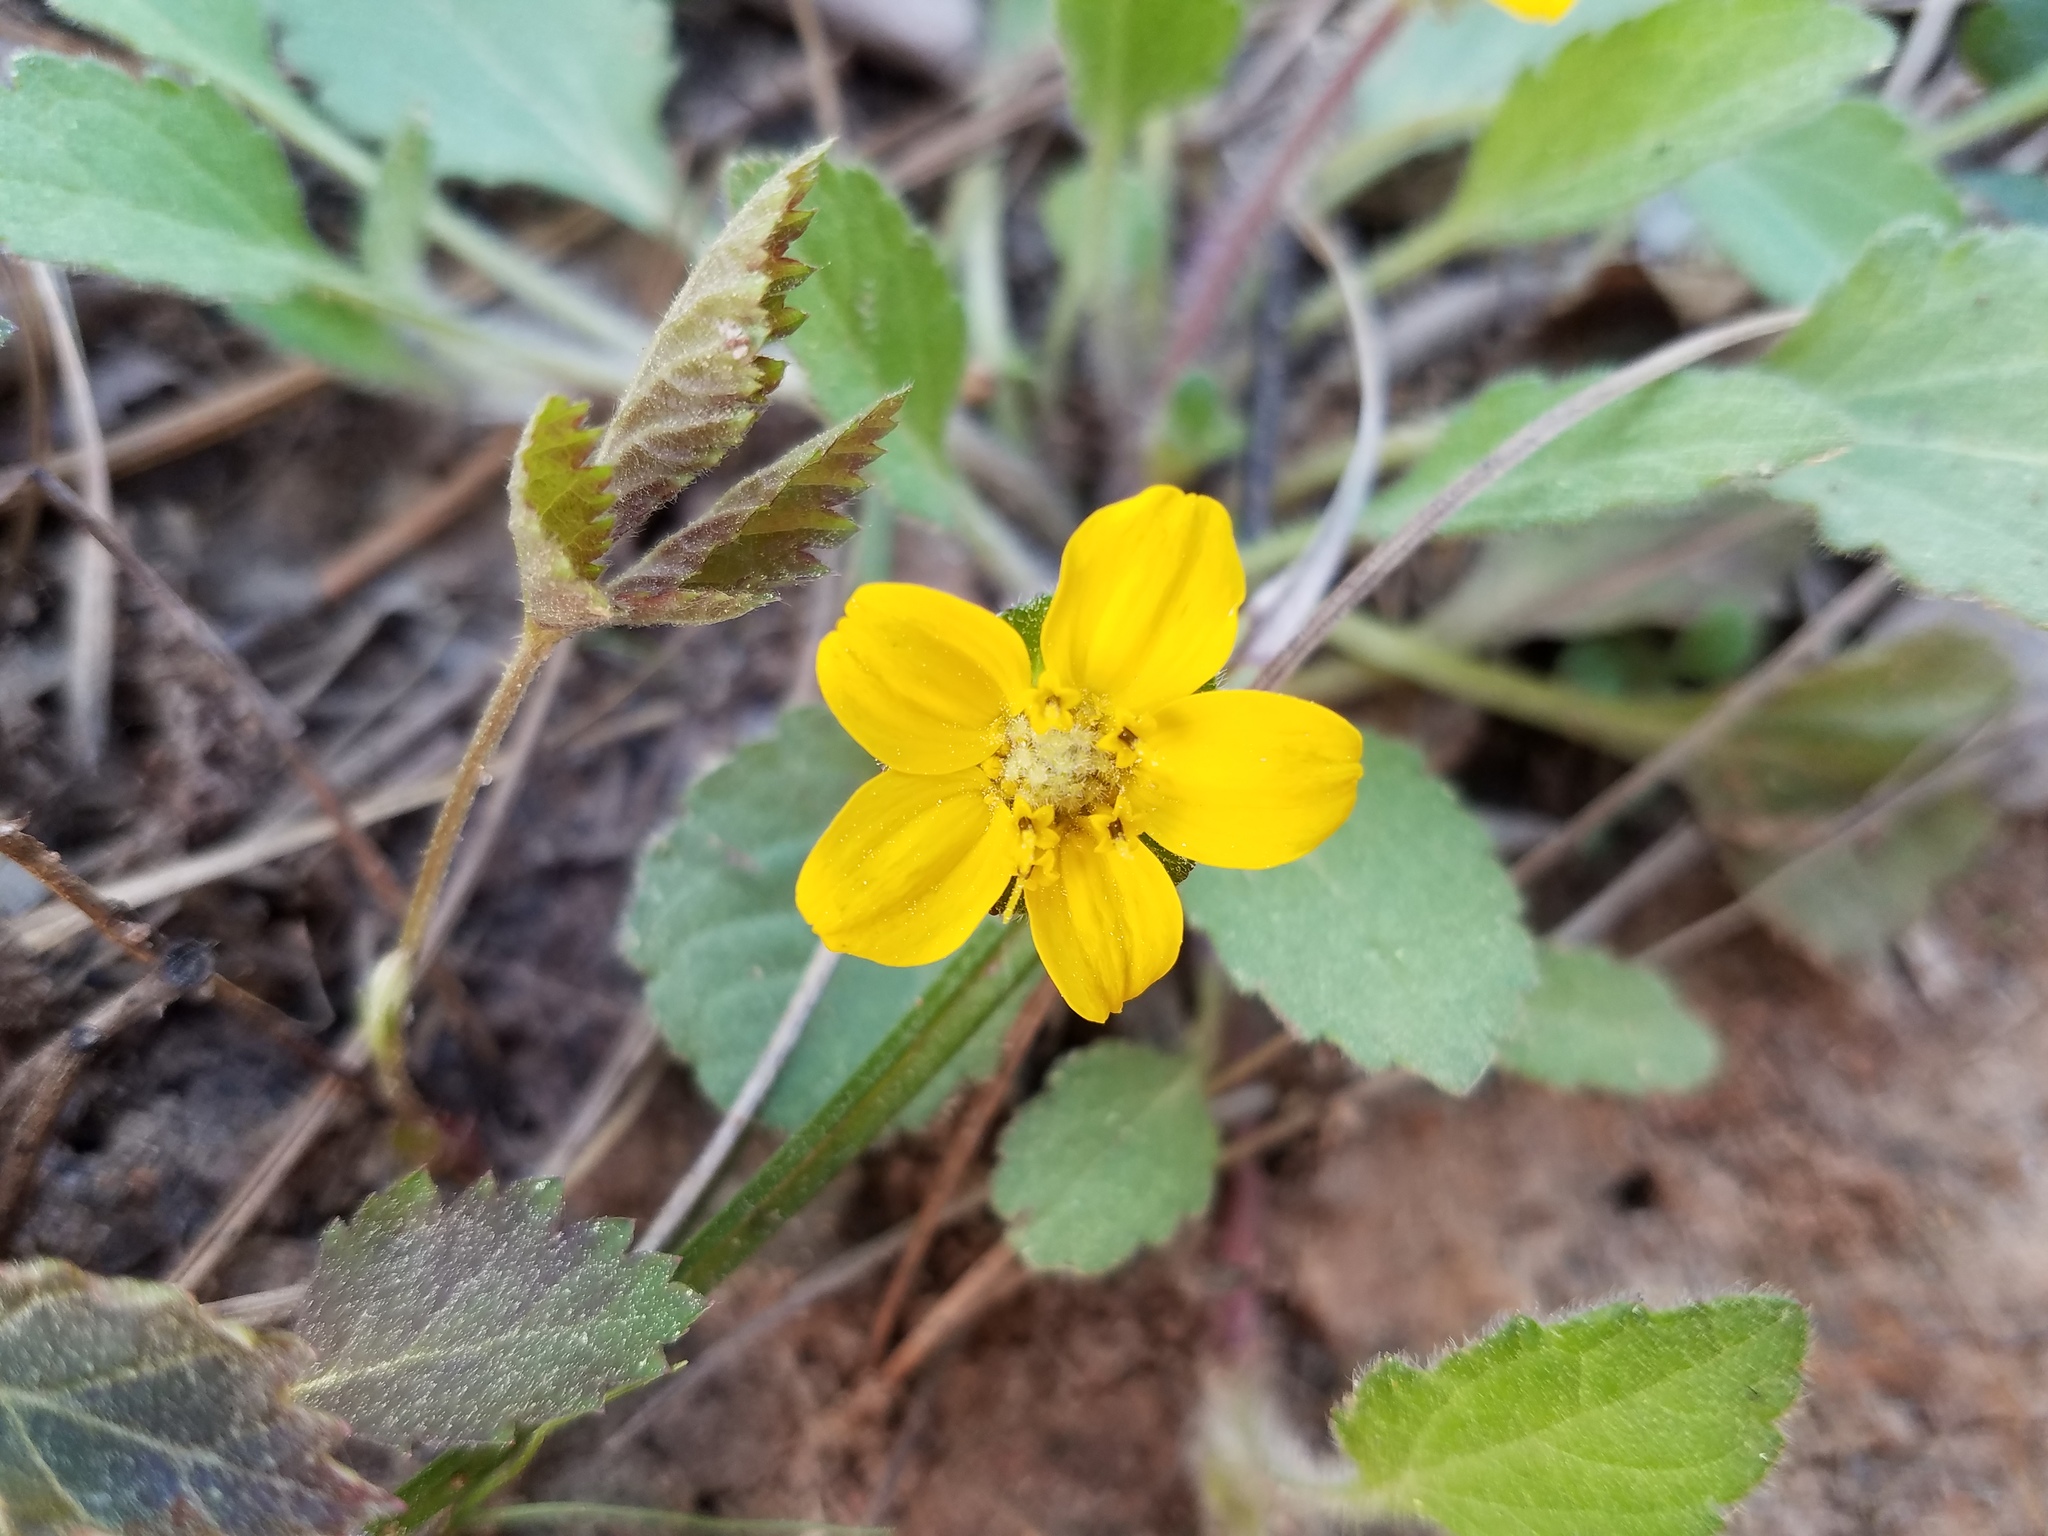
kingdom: Plantae
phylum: Tracheophyta
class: Magnoliopsida
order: Asterales
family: Asteraceae
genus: Chrysogonum
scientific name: Chrysogonum virginianum
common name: Golden-knee
